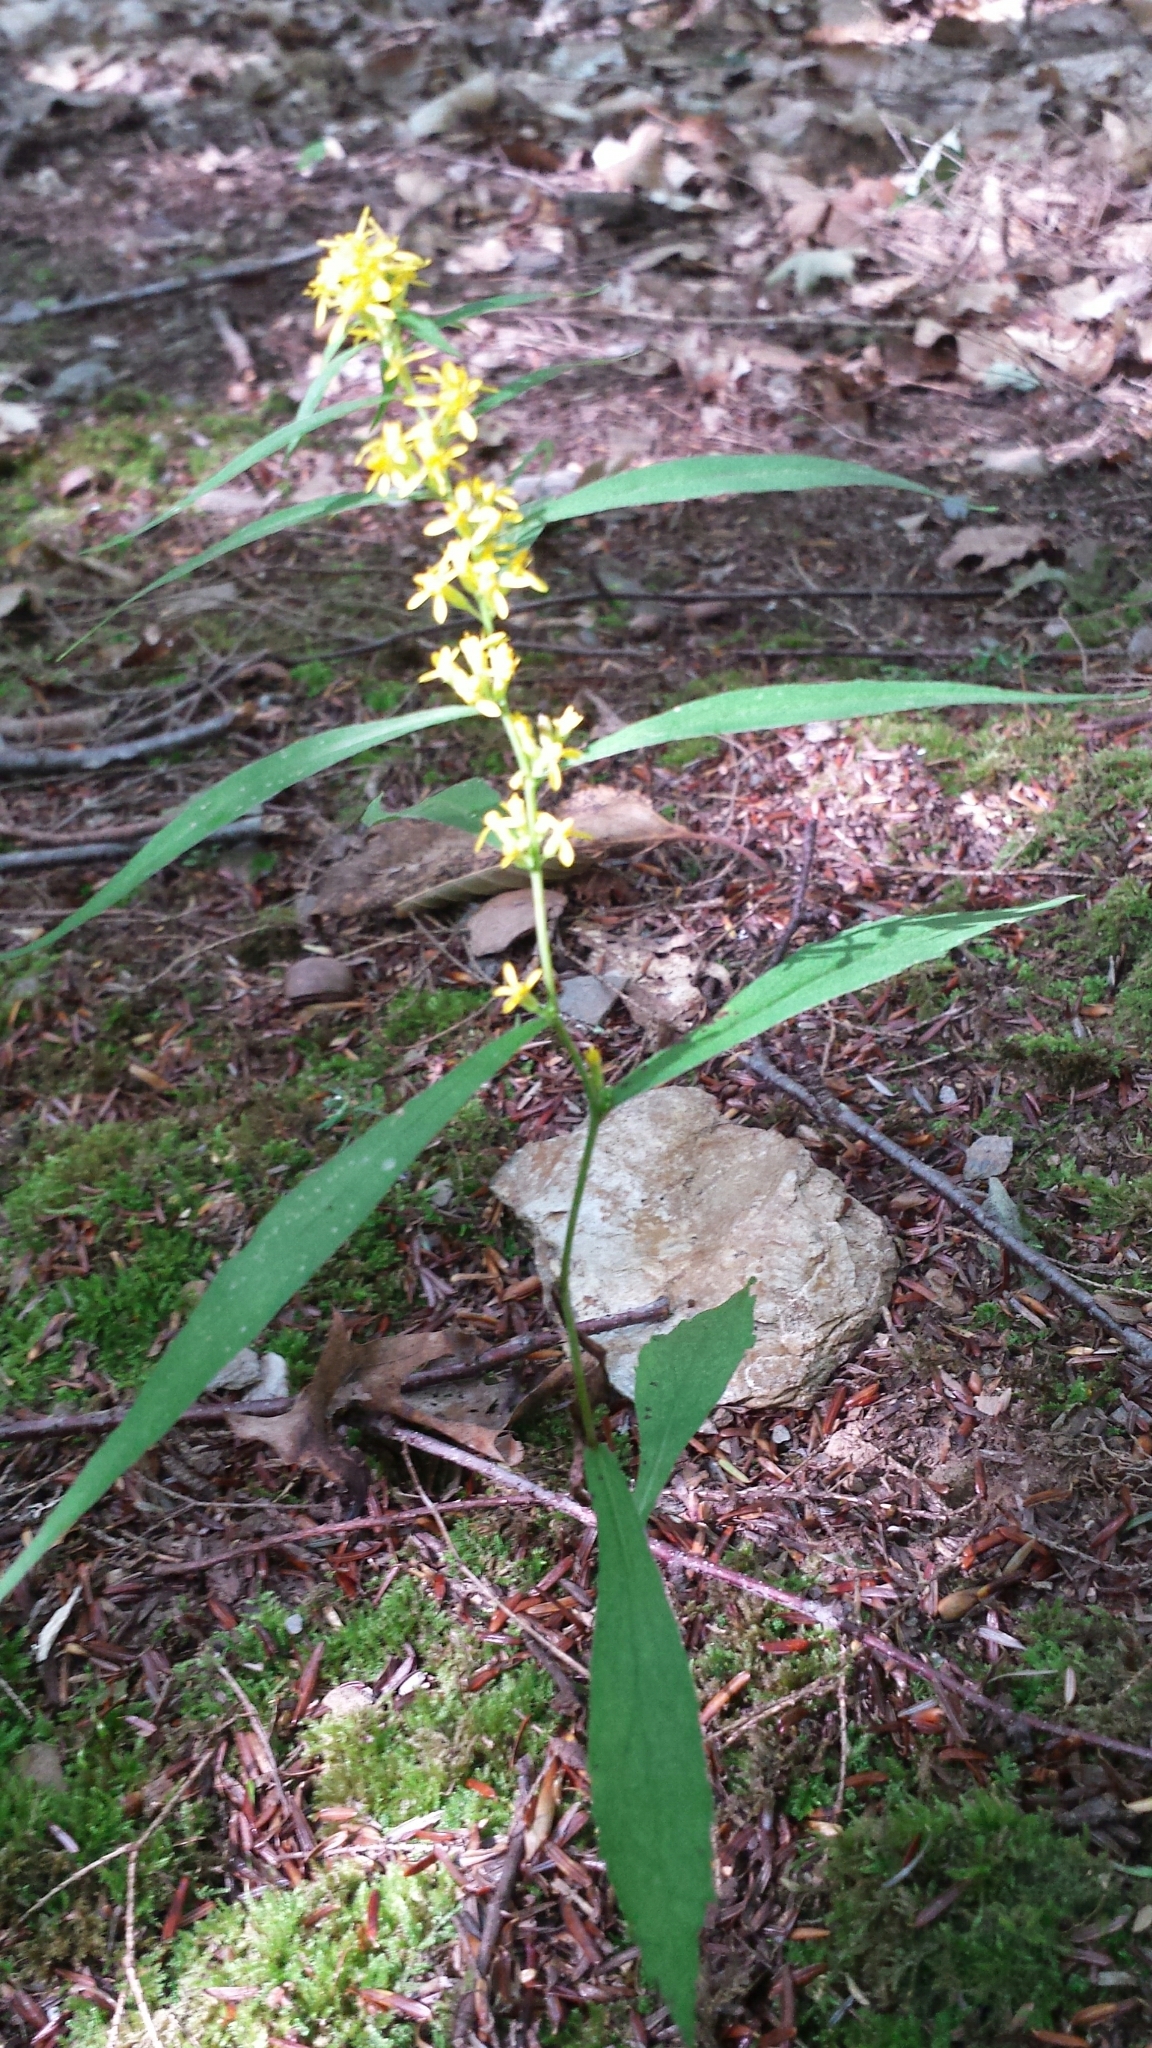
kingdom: Plantae
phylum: Tracheophyta
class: Magnoliopsida
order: Asterales
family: Asteraceae
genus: Solidago
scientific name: Solidago caesia
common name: Woodland goldenrod
